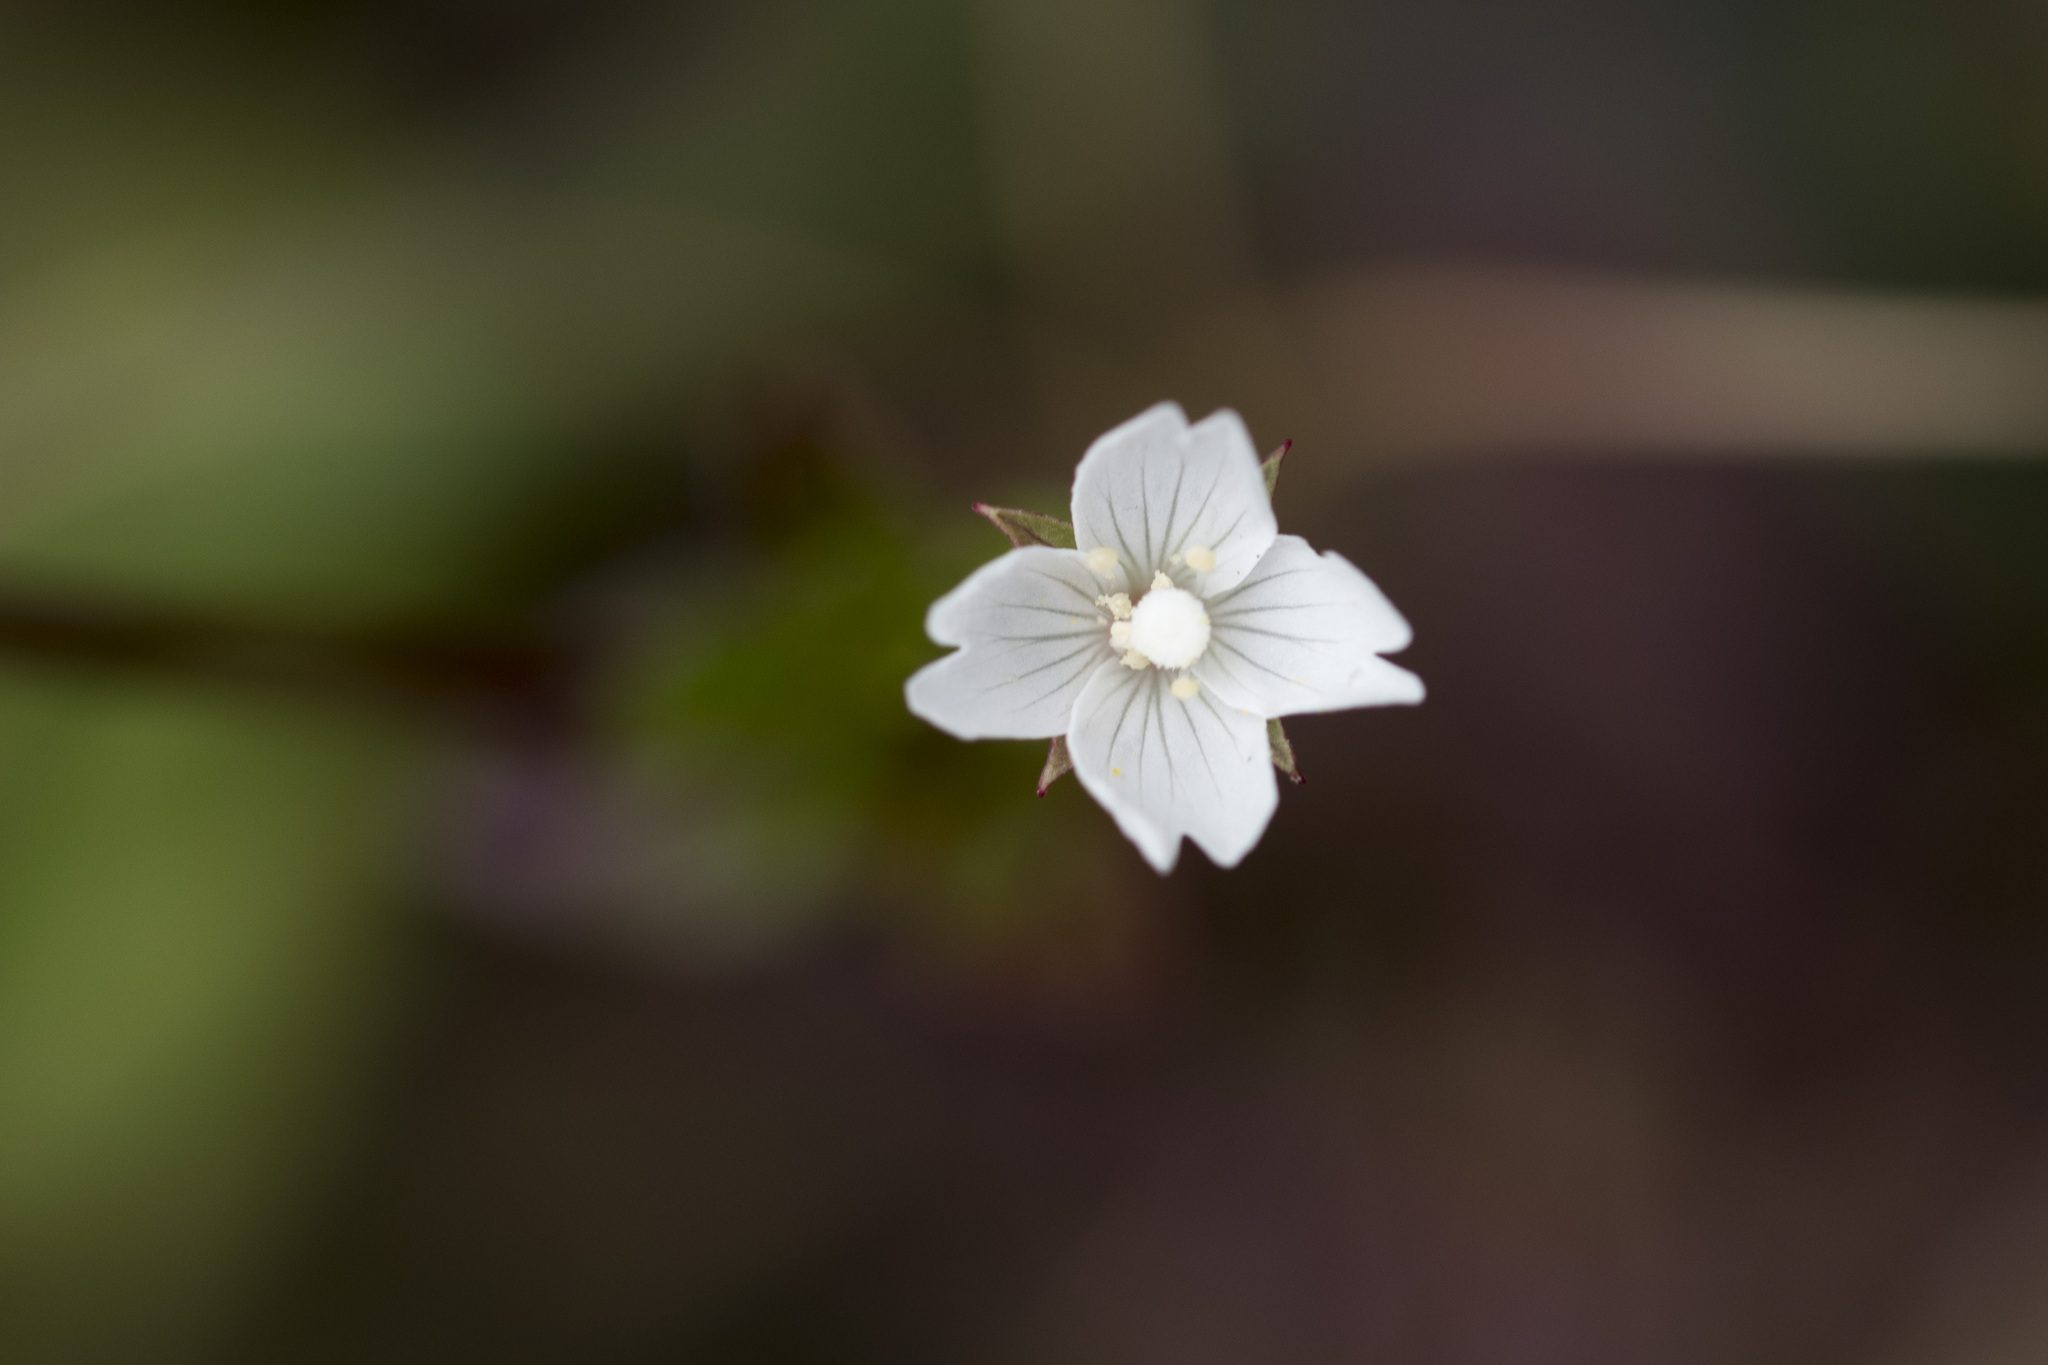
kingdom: Plantae
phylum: Tracheophyta
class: Magnoliopsida
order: Myrtales
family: Onagraceae
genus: Epilobium
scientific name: Epilobium amurense
